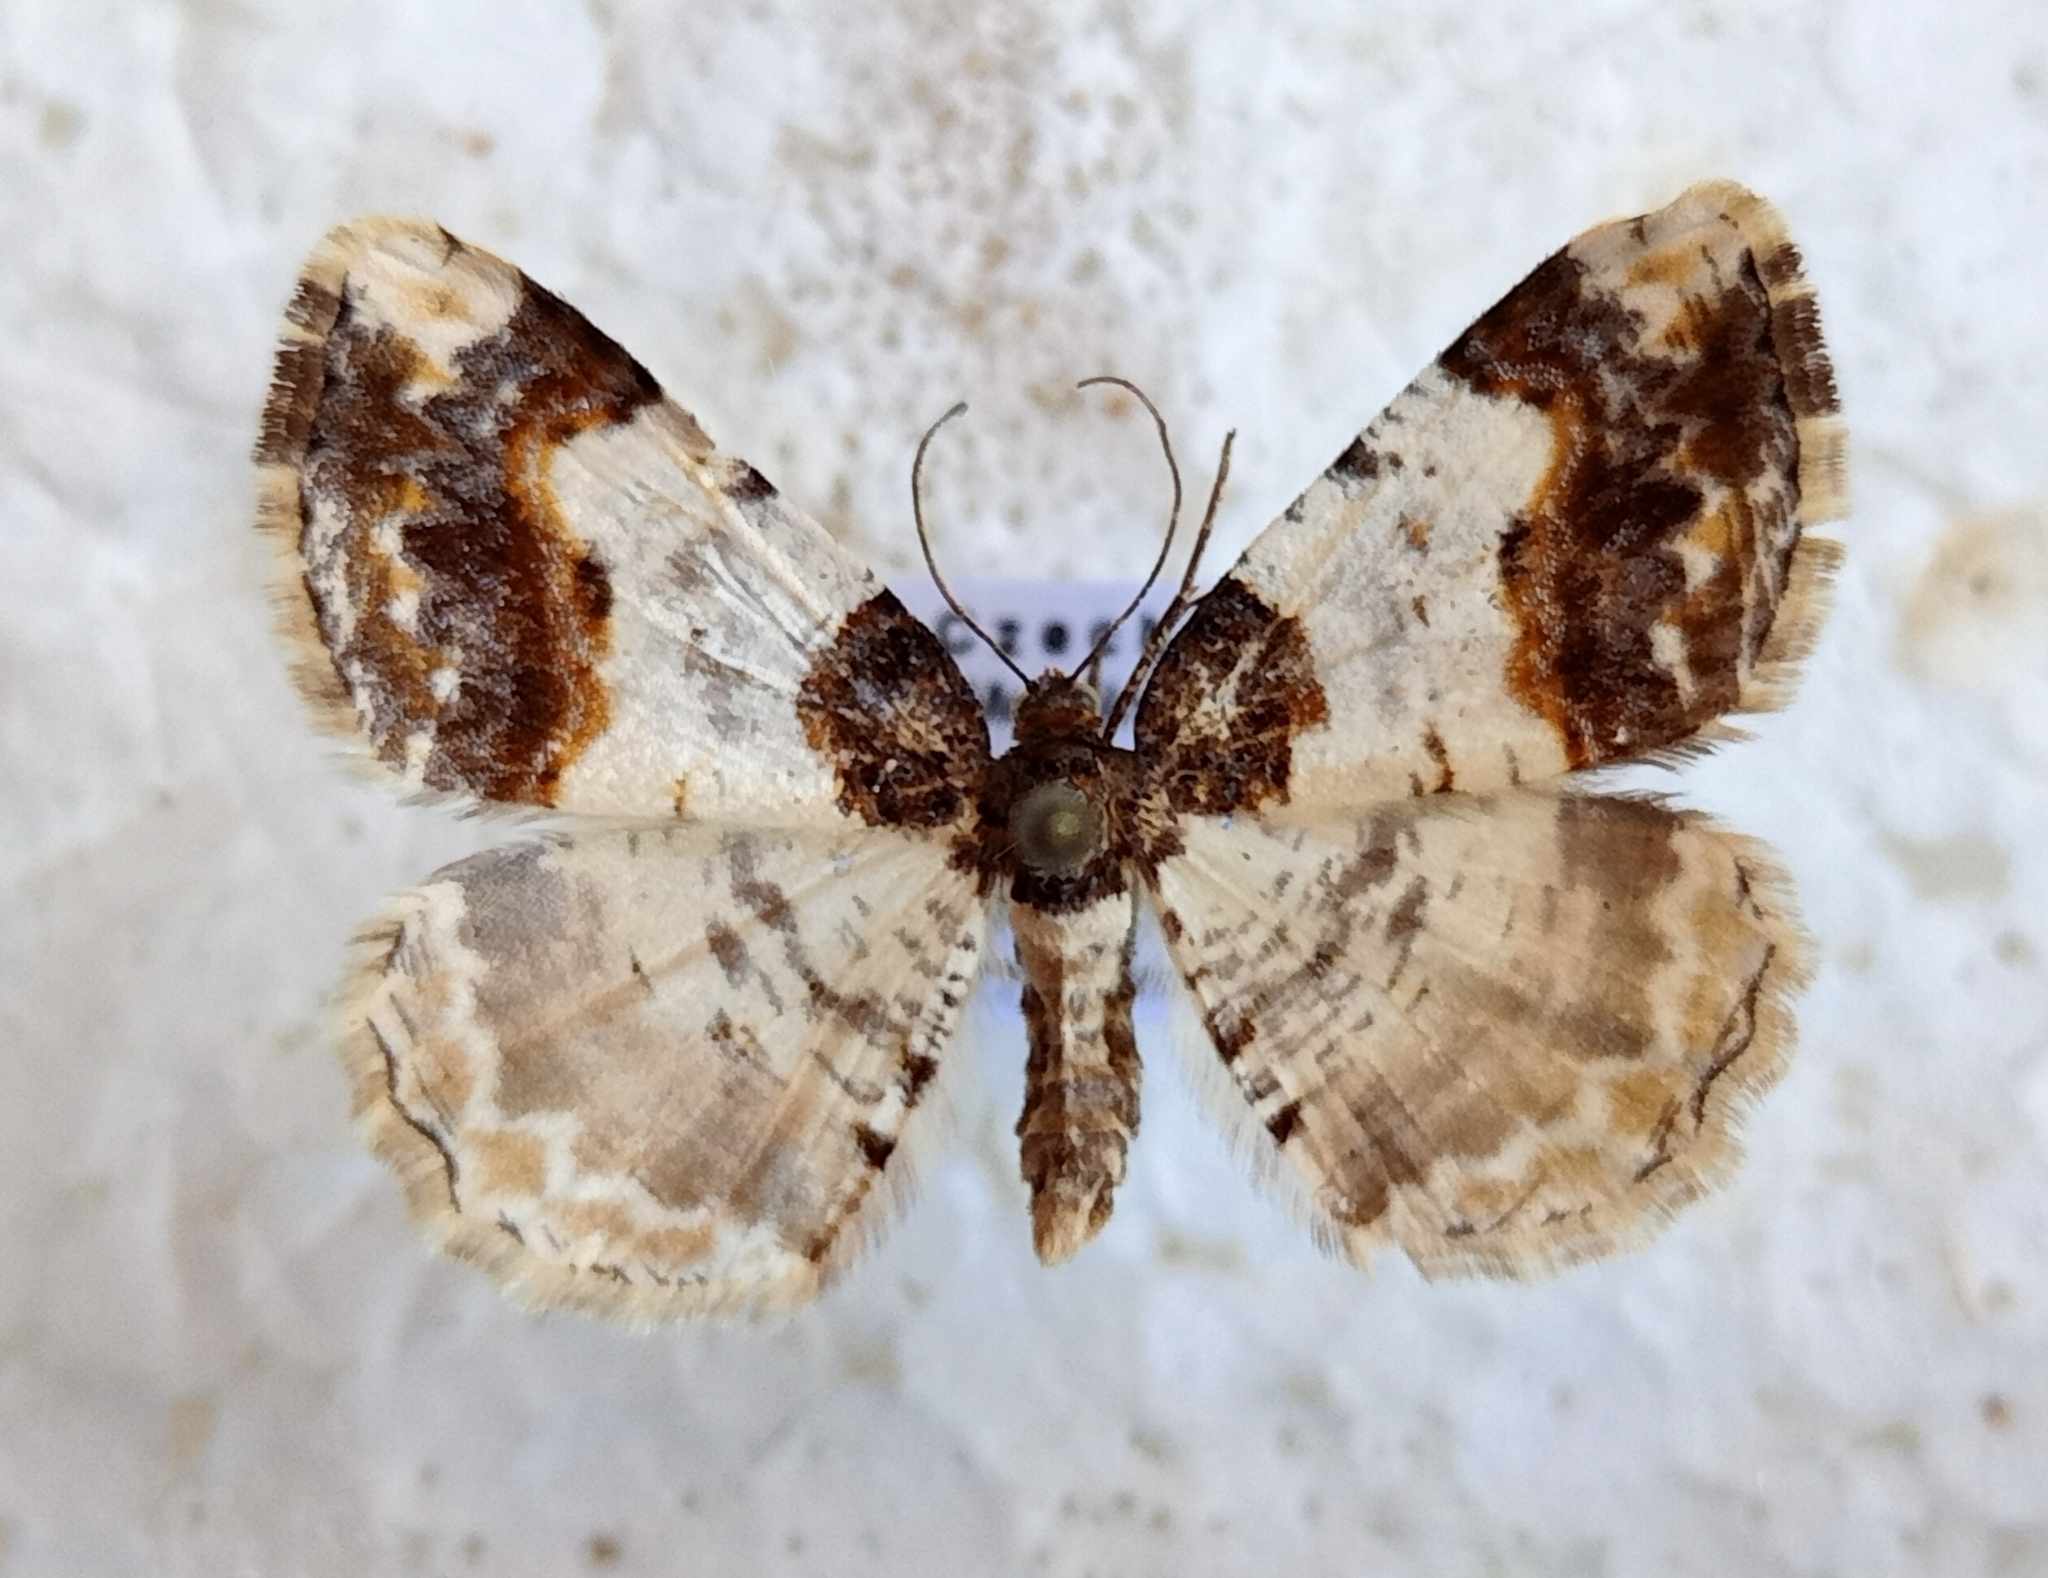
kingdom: Animalia
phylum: Arthropoda
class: Insecta
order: Lepidoptera
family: Geometridae
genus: Ligdia
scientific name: Ligdia adustata
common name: Scorched carpet
